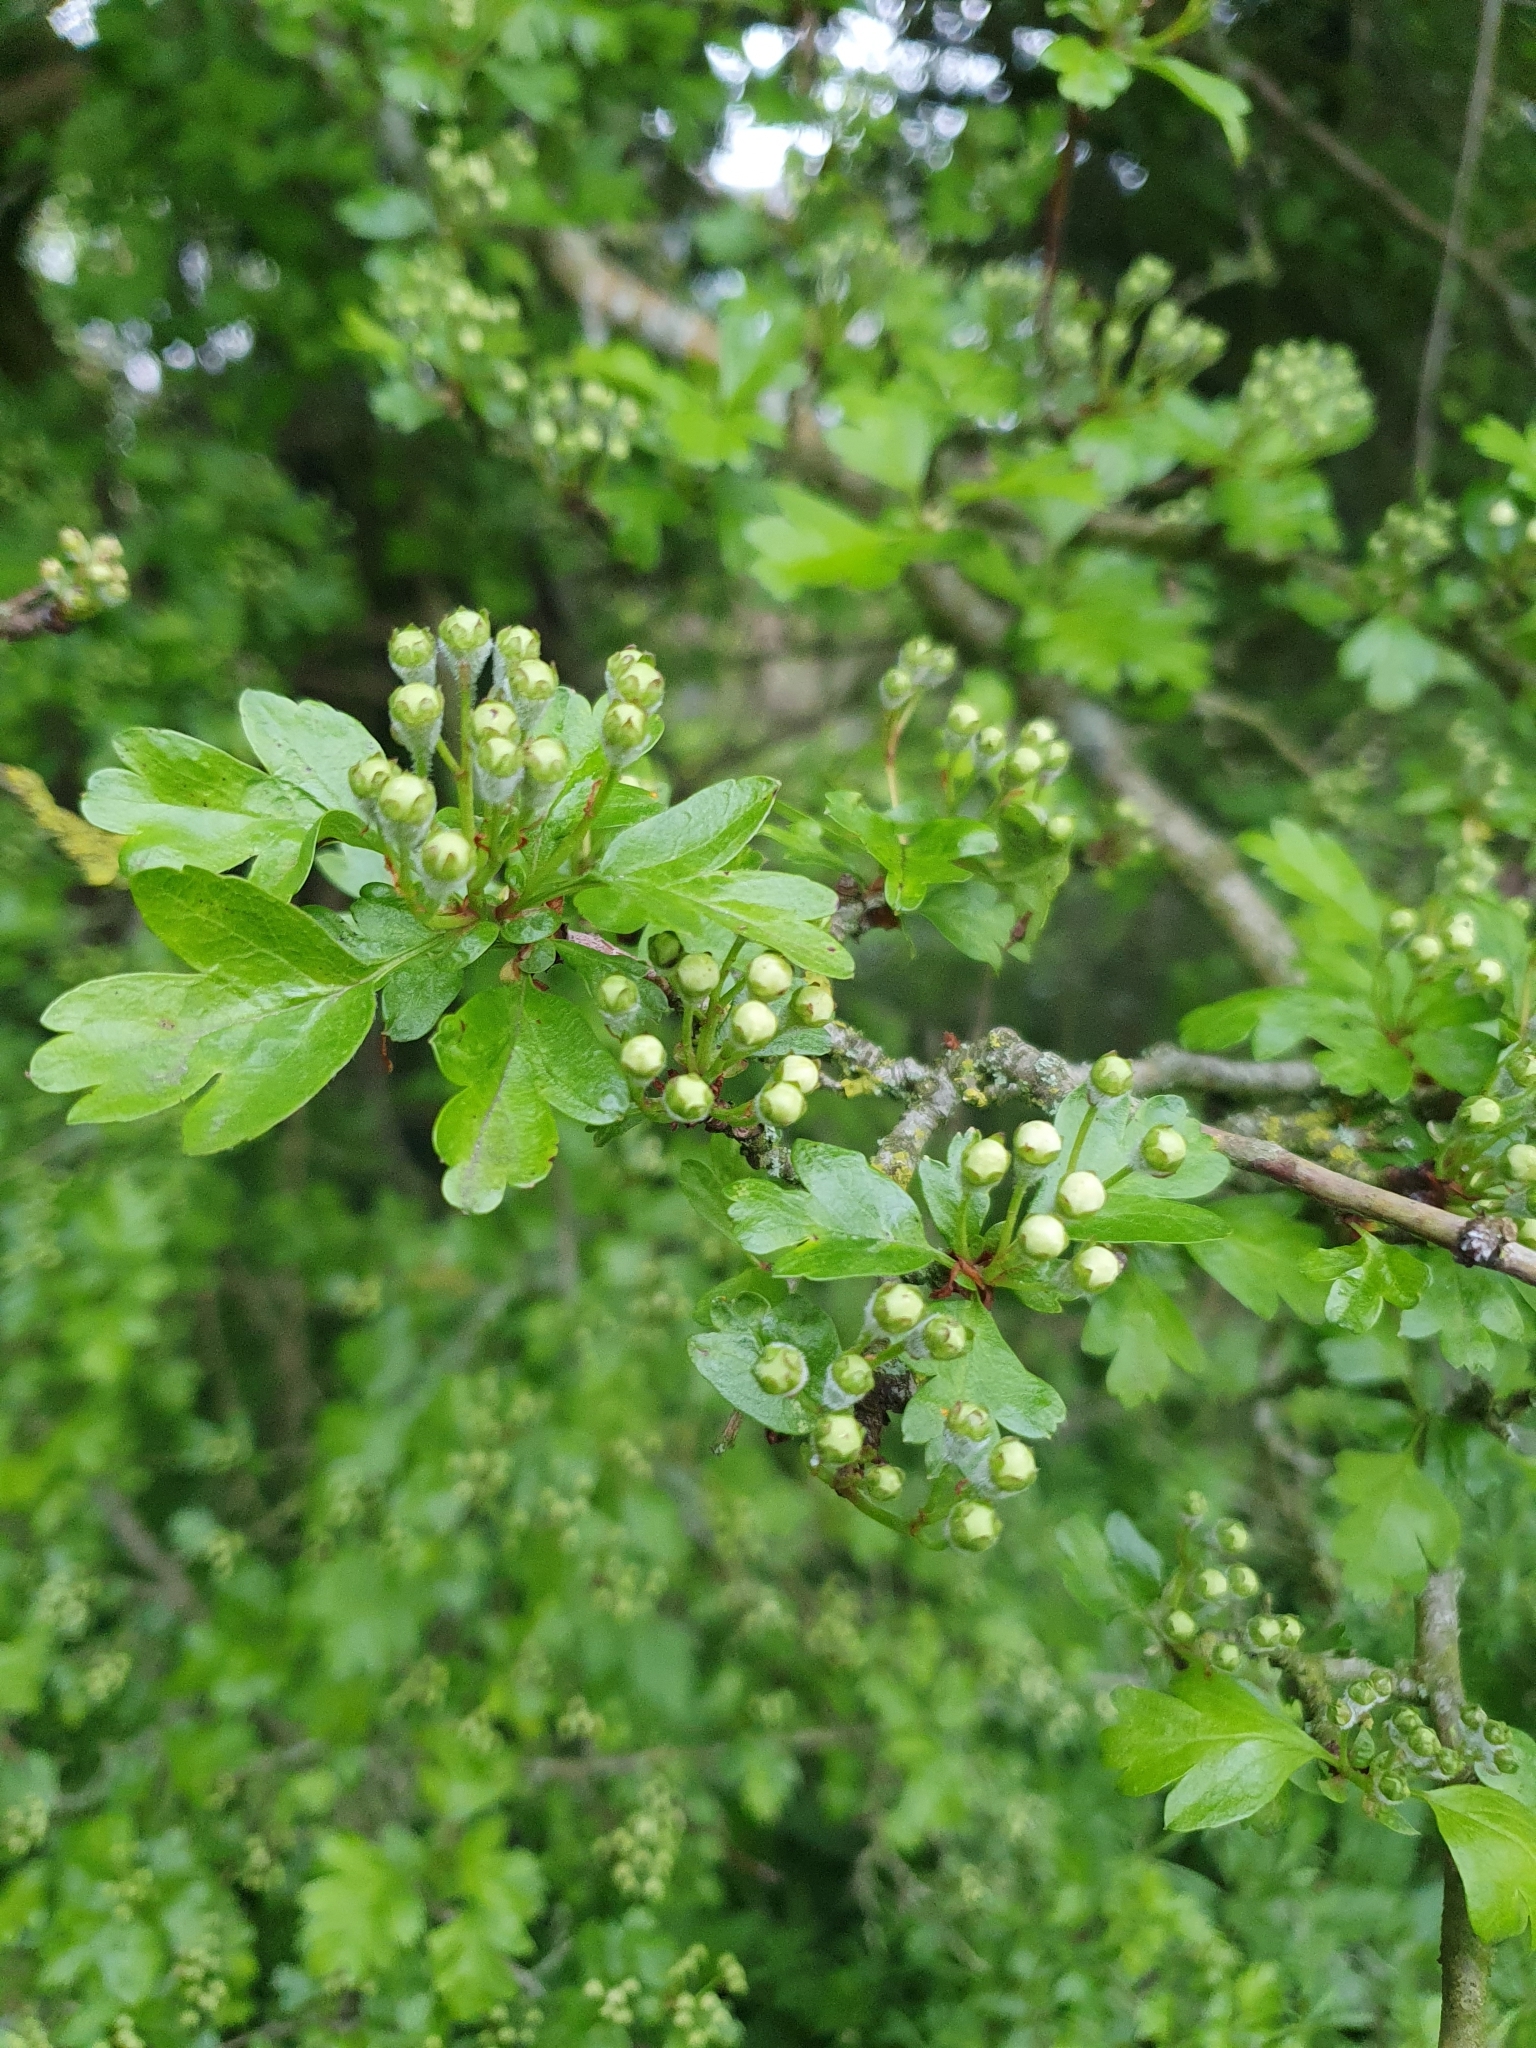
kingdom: Plantae
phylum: Tracheophyta
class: Magnoliopsida
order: Rosales
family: Rosaceae
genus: Crataegus
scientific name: Crataegus monogyna
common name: Hawthorn
